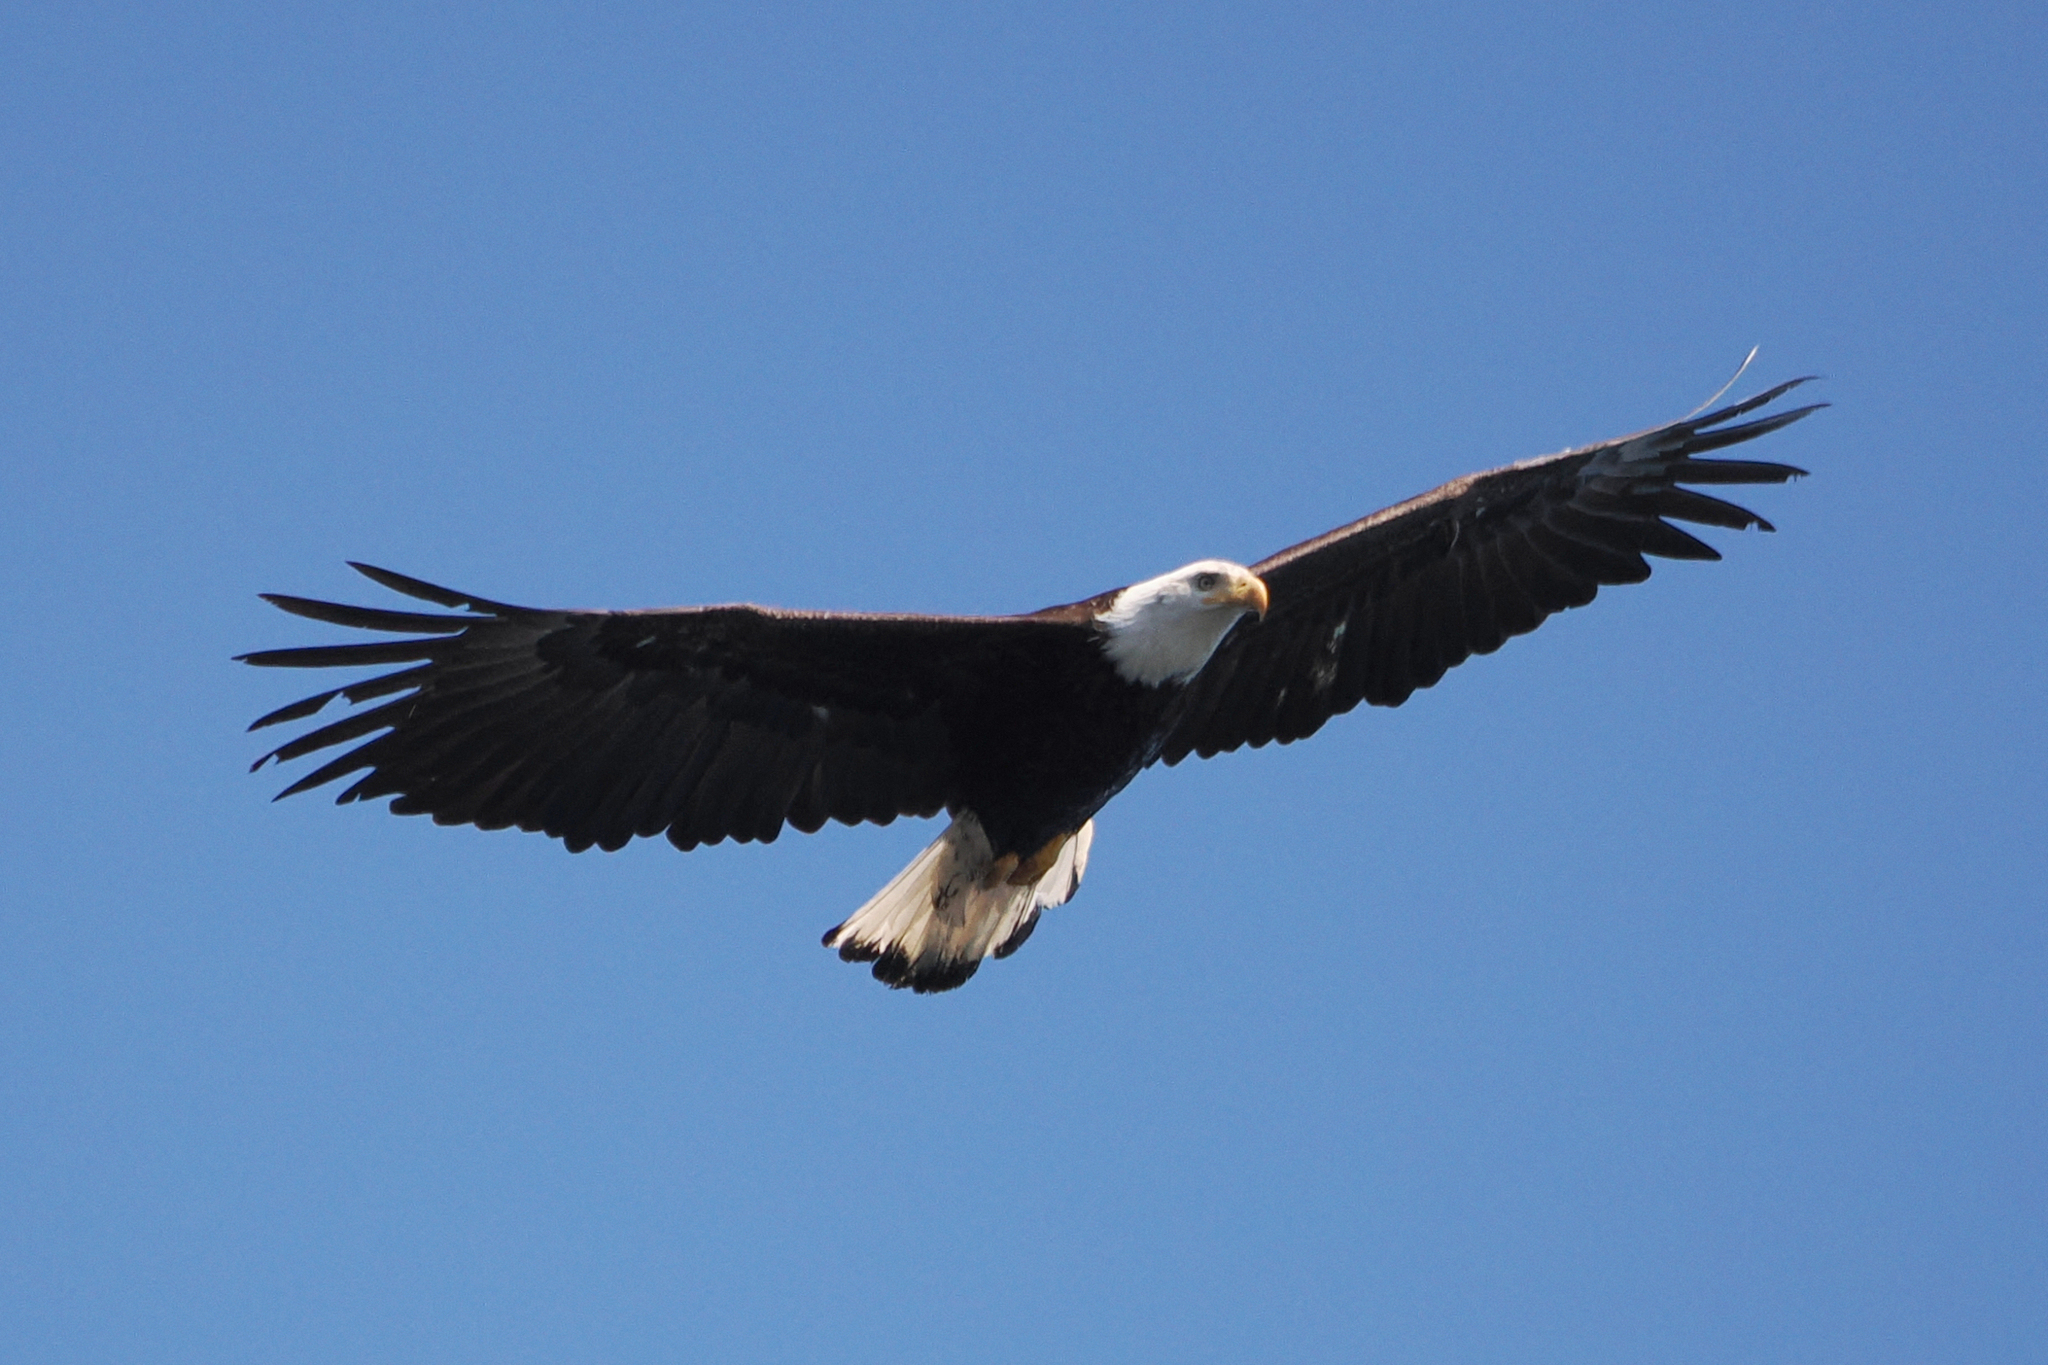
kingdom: Animalia
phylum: Chordata
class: Aves
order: Accipitriformes
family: Accipitridae
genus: Haliaeetus
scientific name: Haliaeetus leucocephalus
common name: Bald eagle
